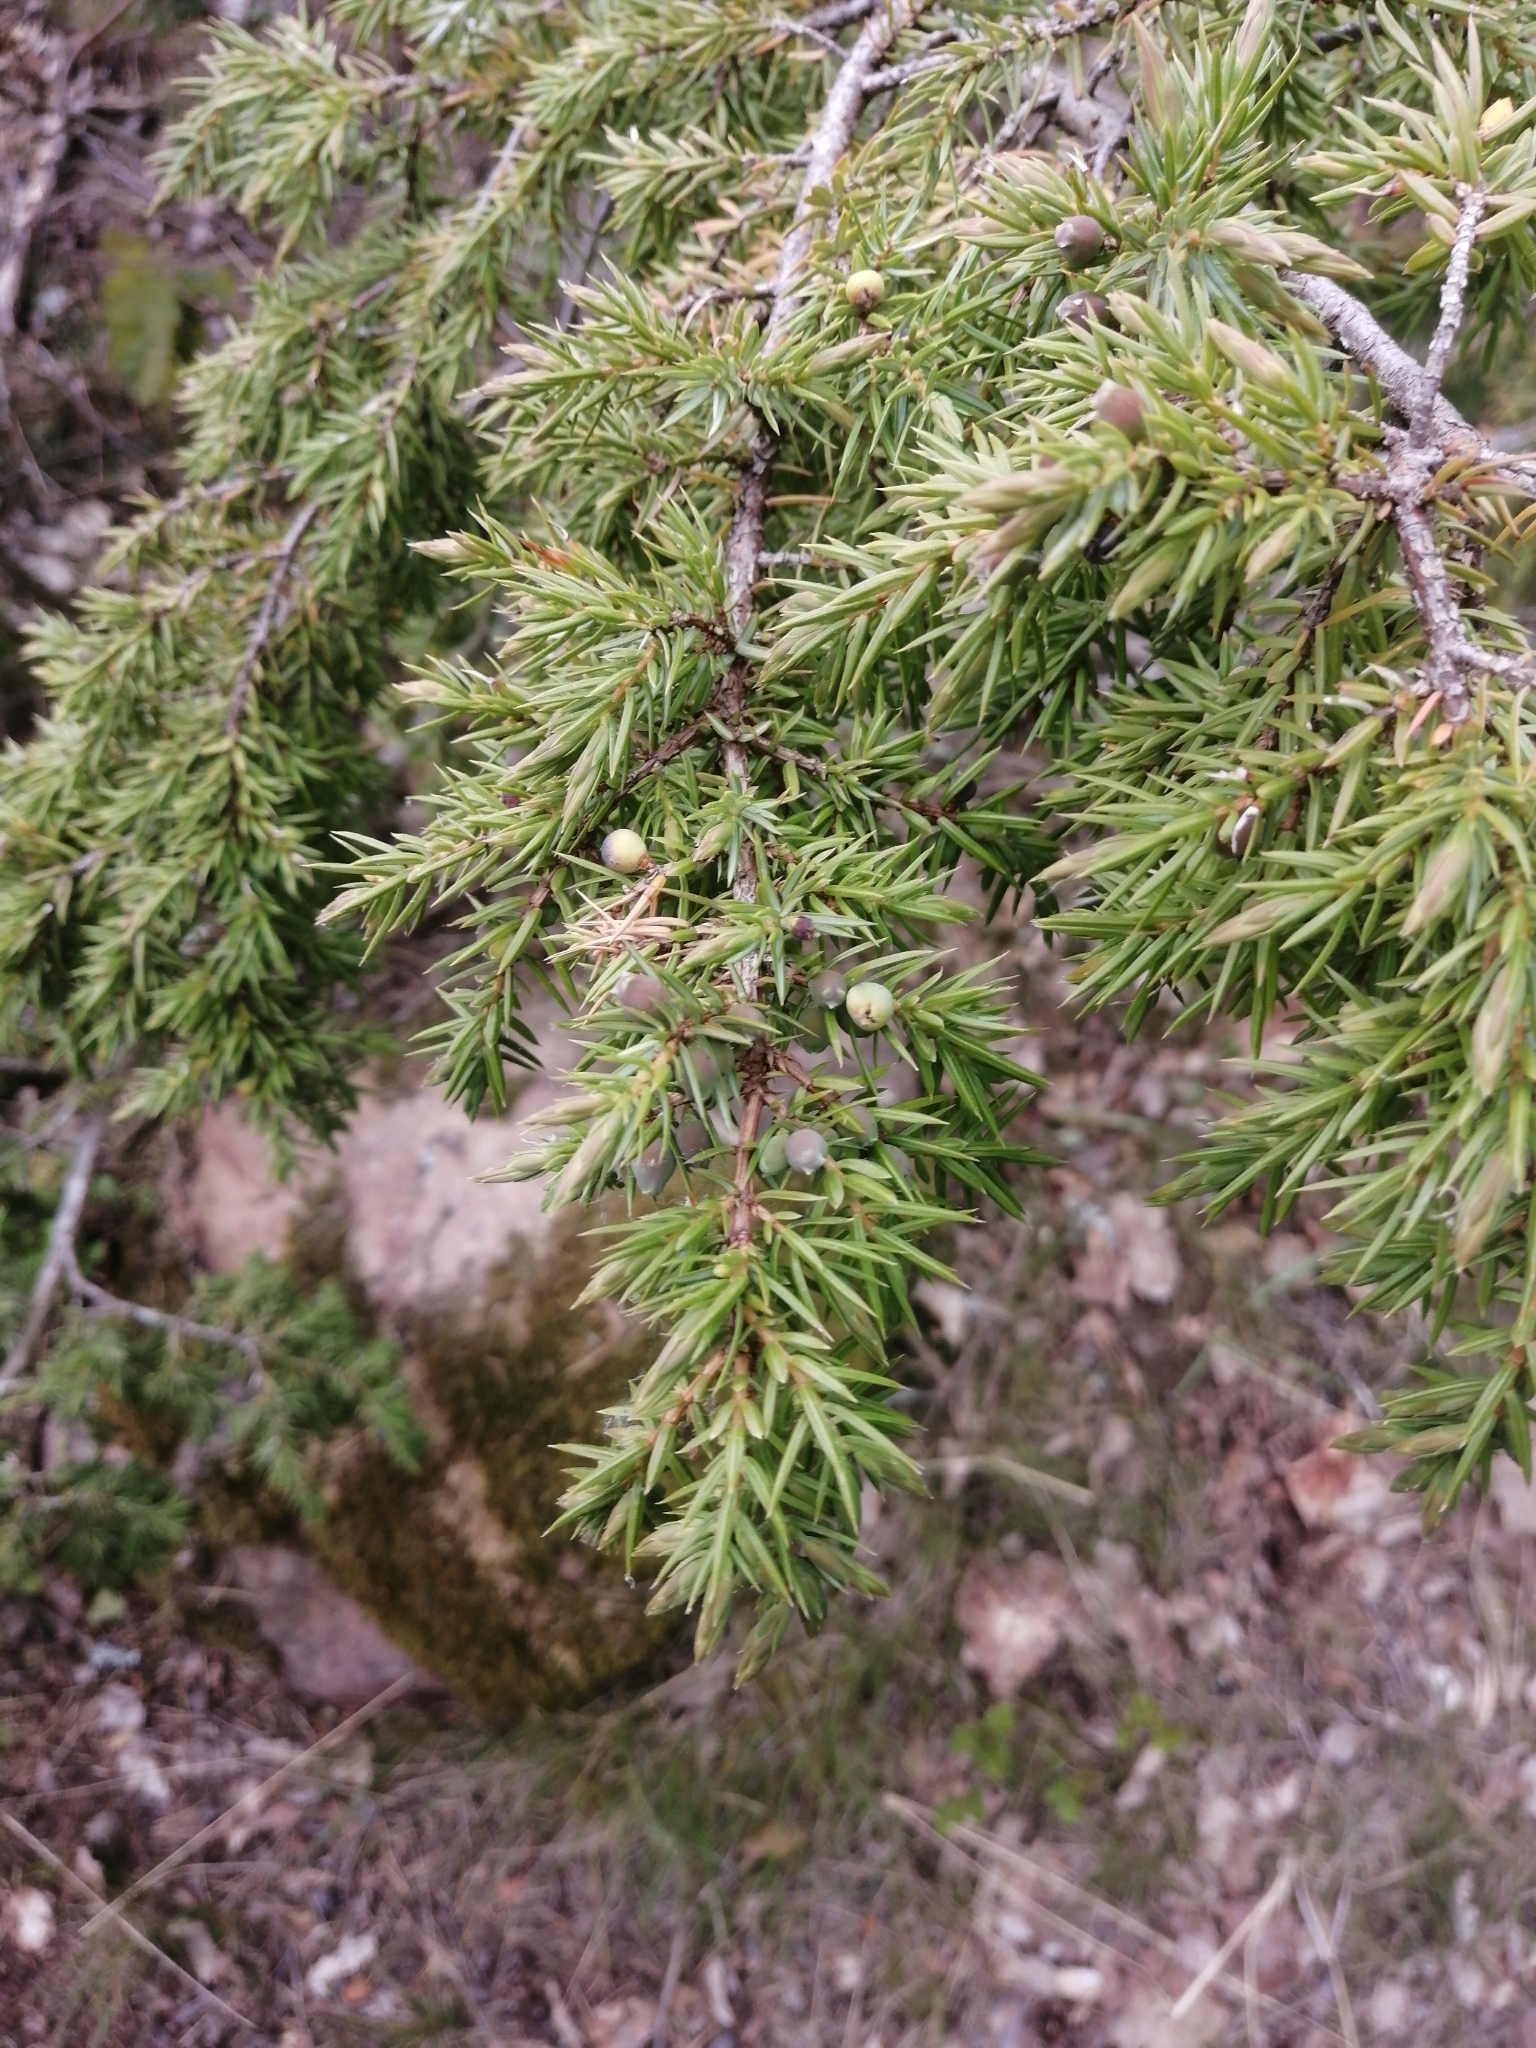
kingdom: Plantae
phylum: Tracheophyta
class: Pinopsida
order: Pinales
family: Cupressaceae
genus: Juniperus
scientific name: Juniperus communis
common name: Common juniper
